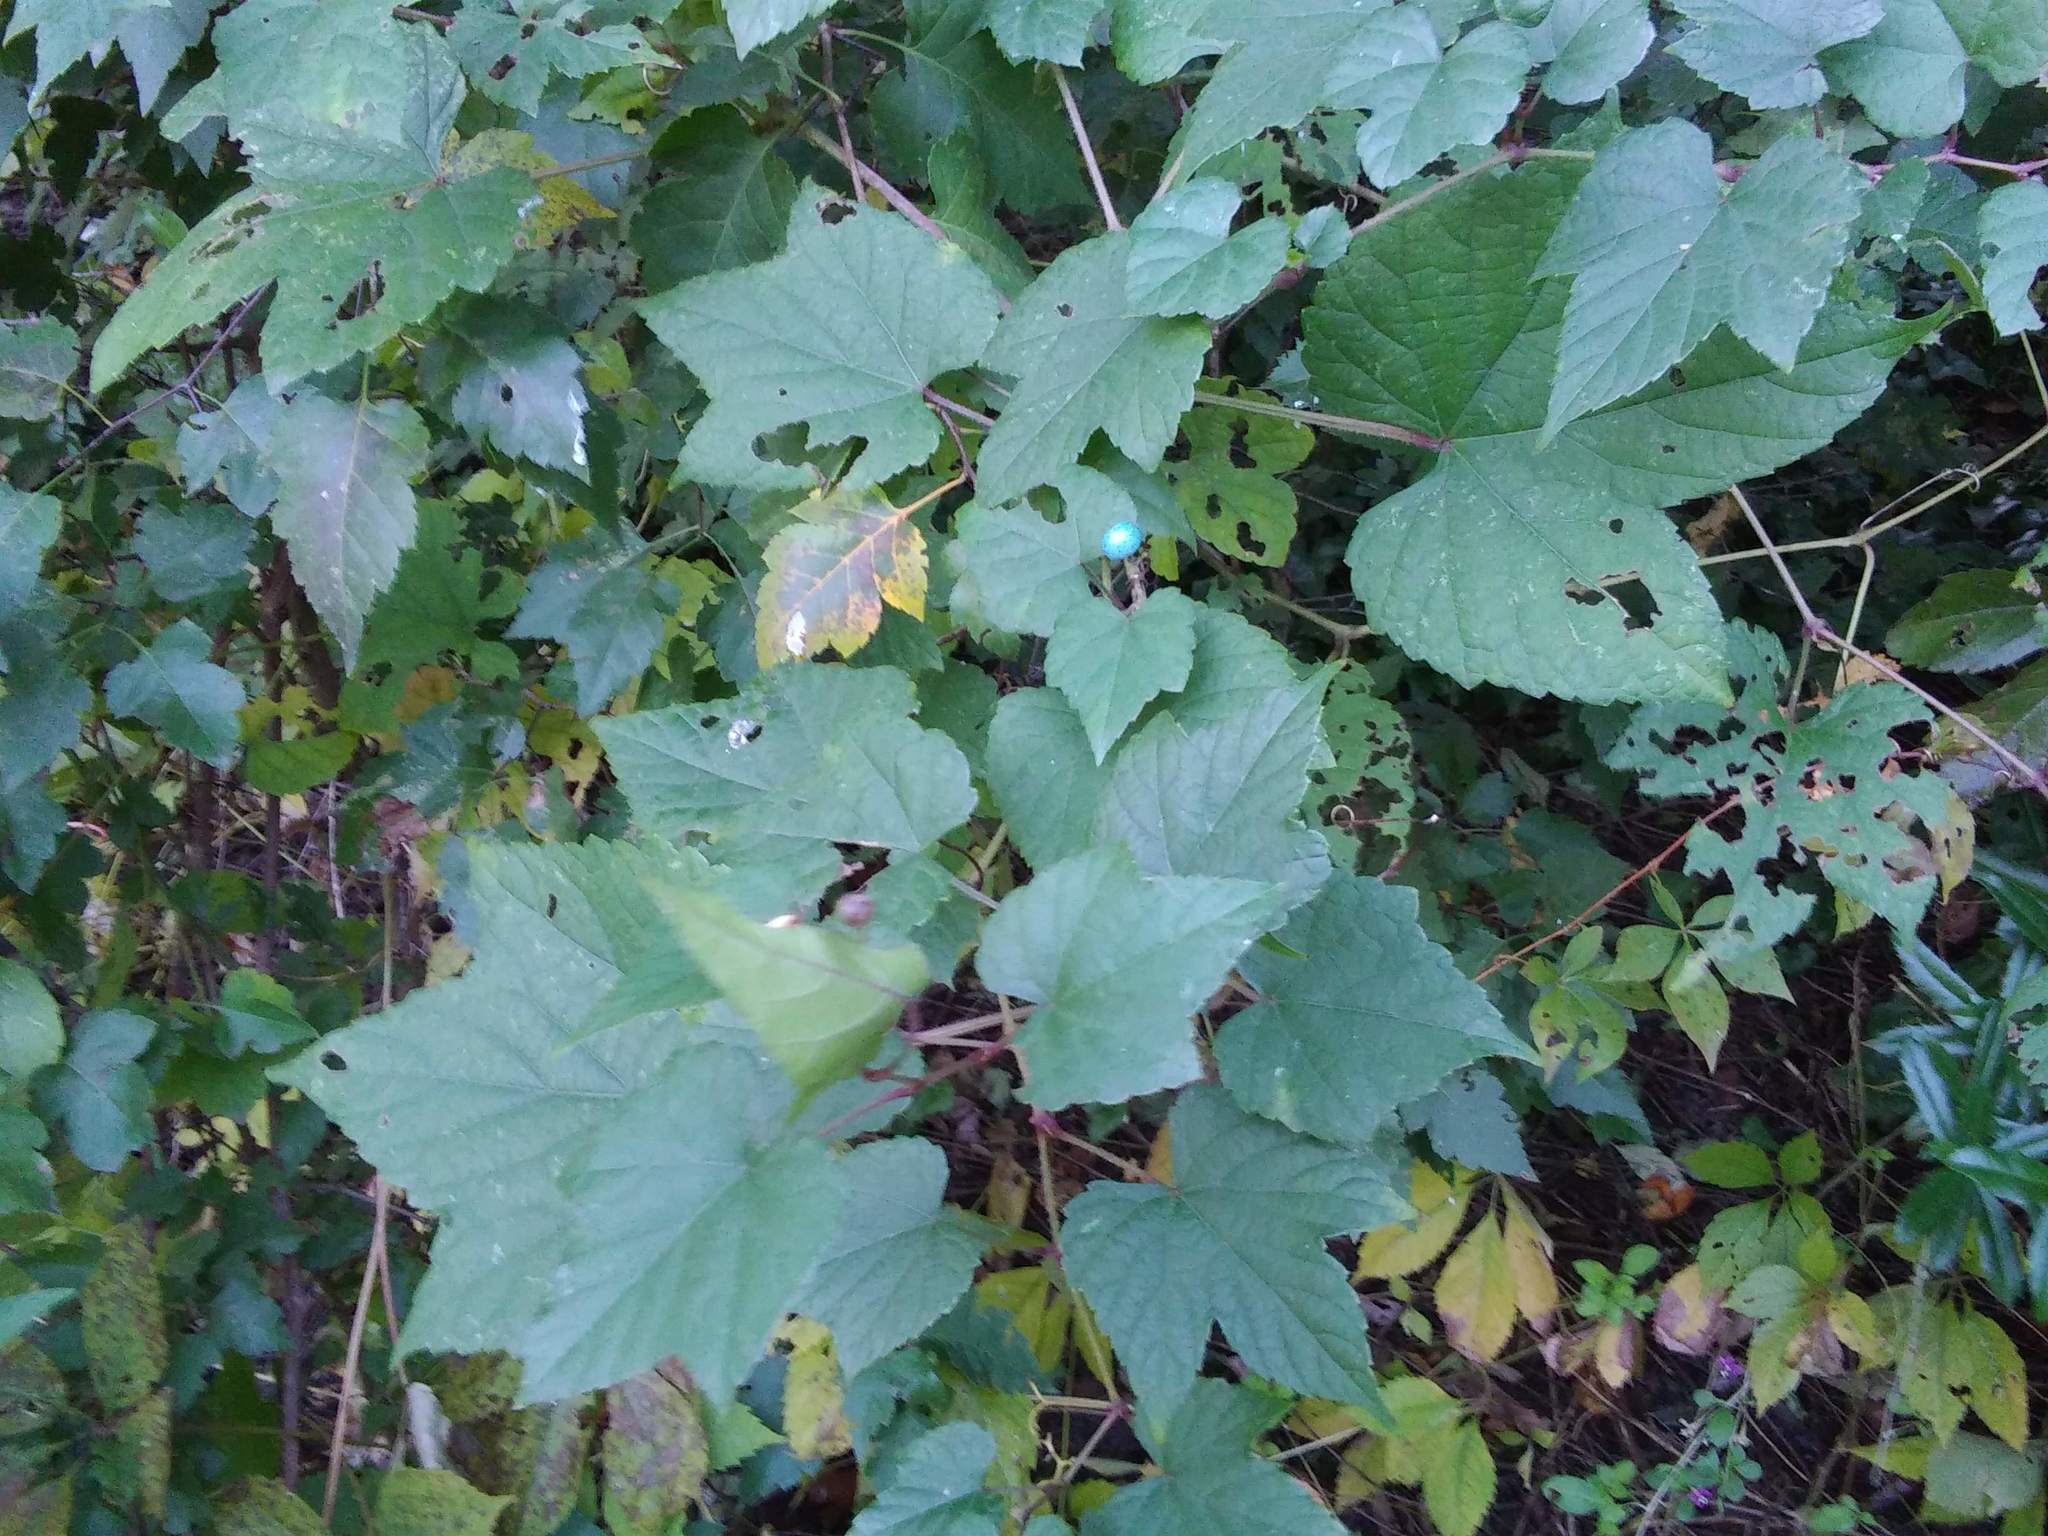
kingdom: Plantae
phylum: Tracheophyta
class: Magnoliopsida
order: Vitales
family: Vitaceae
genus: Ampelopsis
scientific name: Ampelopsis glandulosa
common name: Amur peppervine
